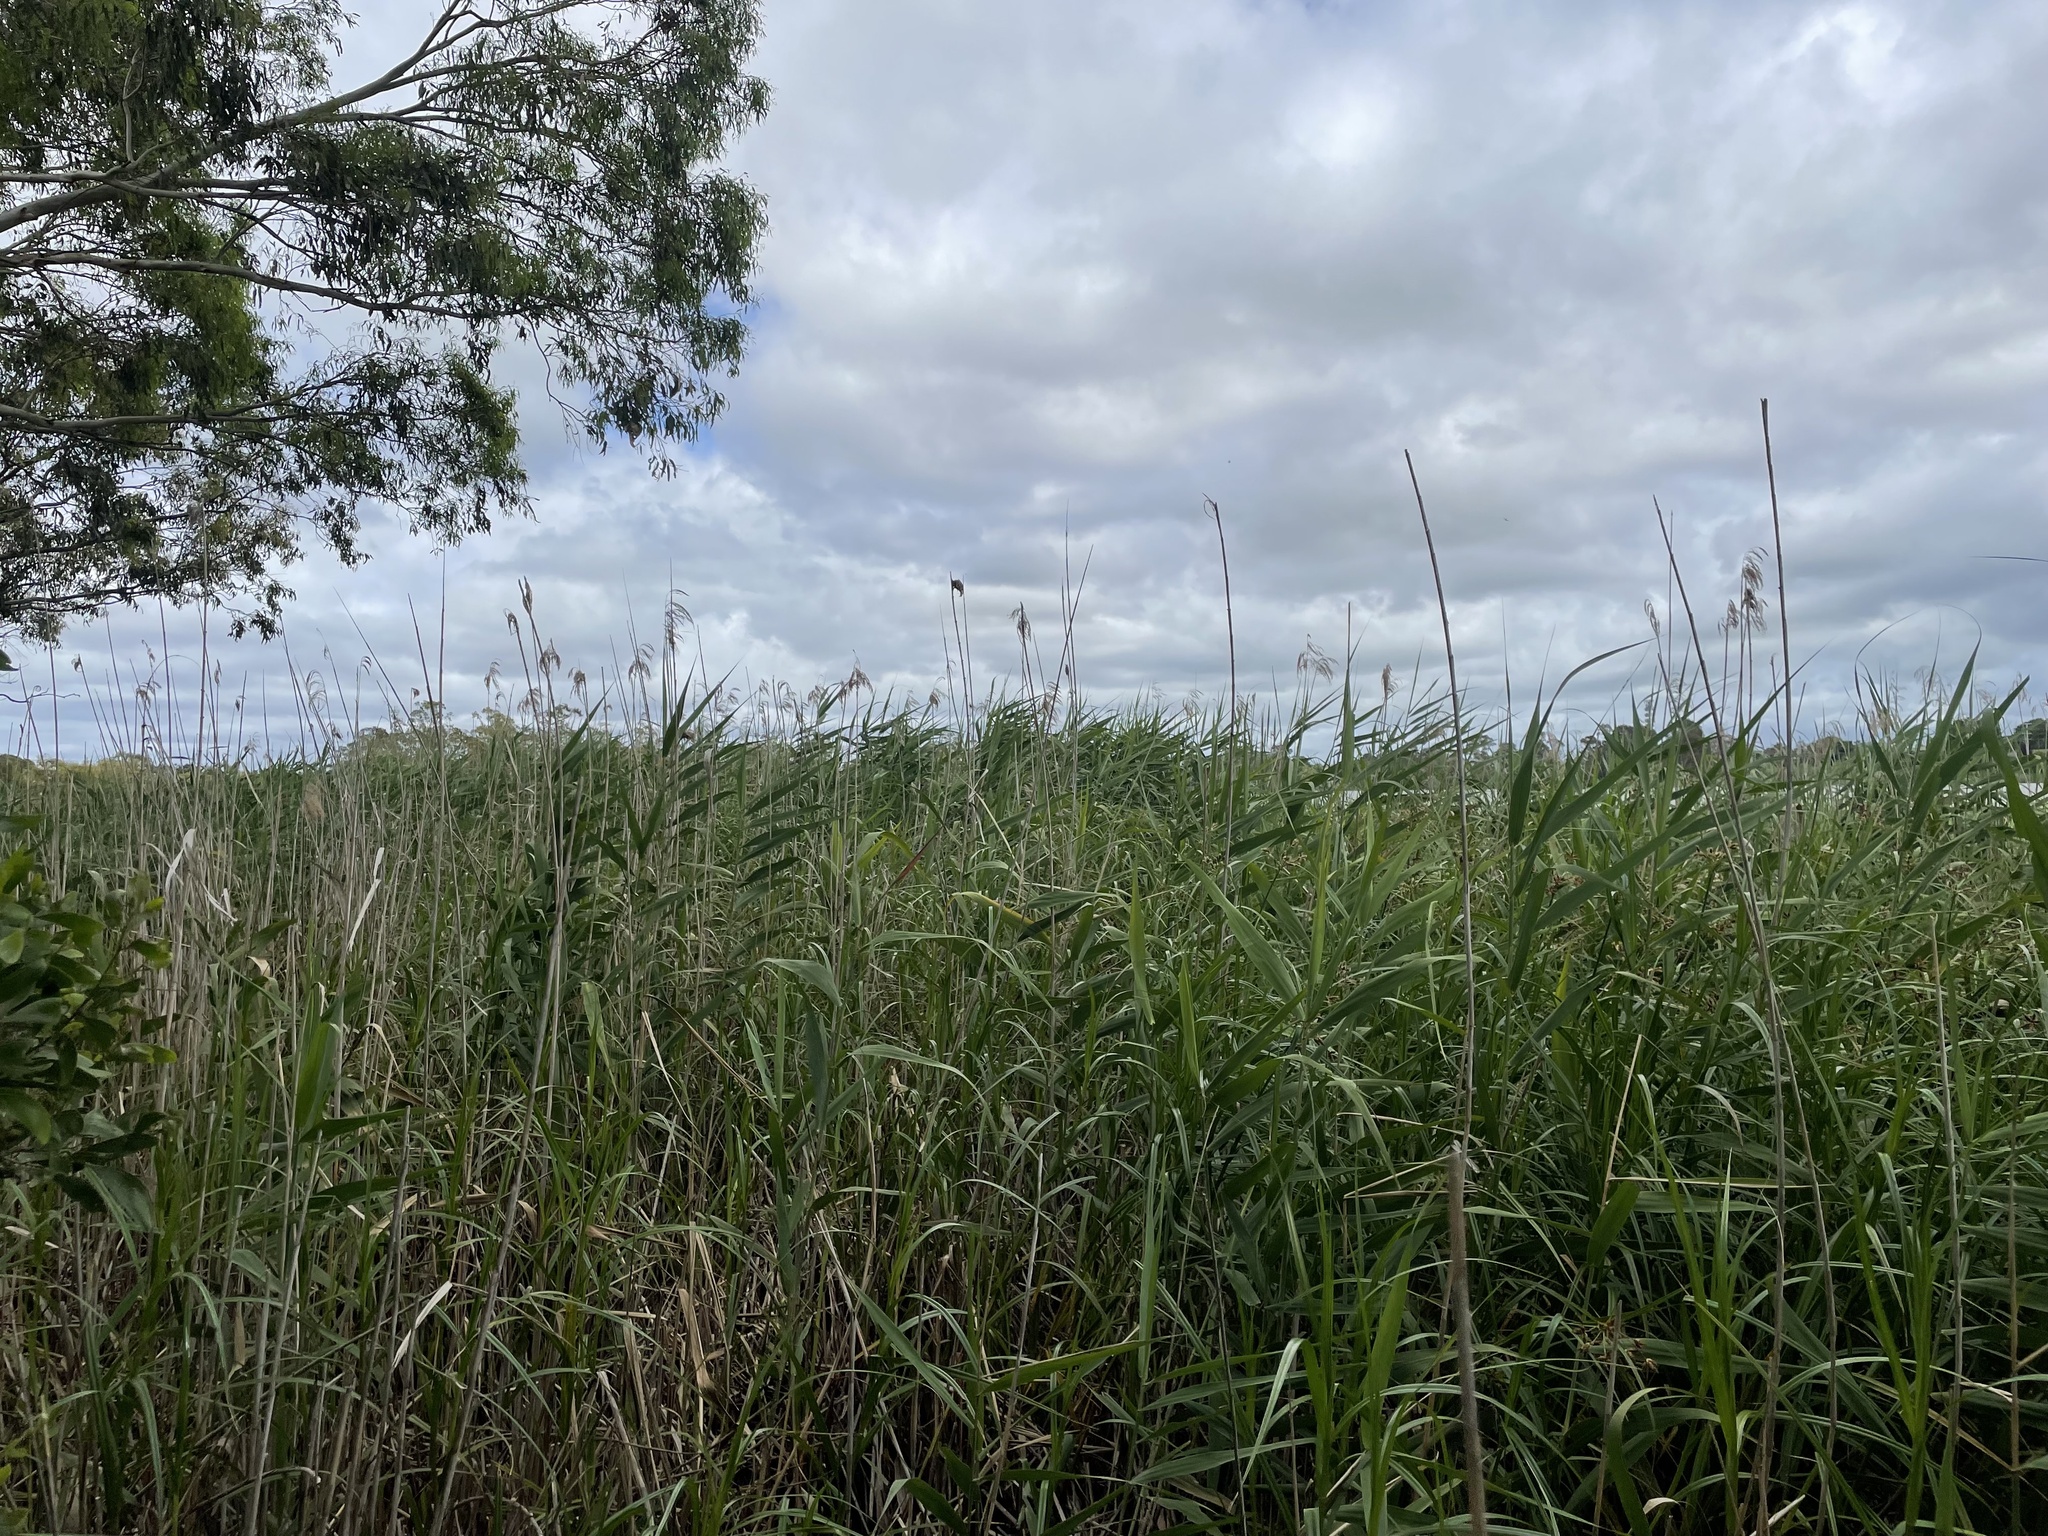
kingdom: Plantae
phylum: Tracheophyta
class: Liliopsida
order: Poales
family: Poaceae
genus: Phragmites
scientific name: Phragmites australis
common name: Common reed
